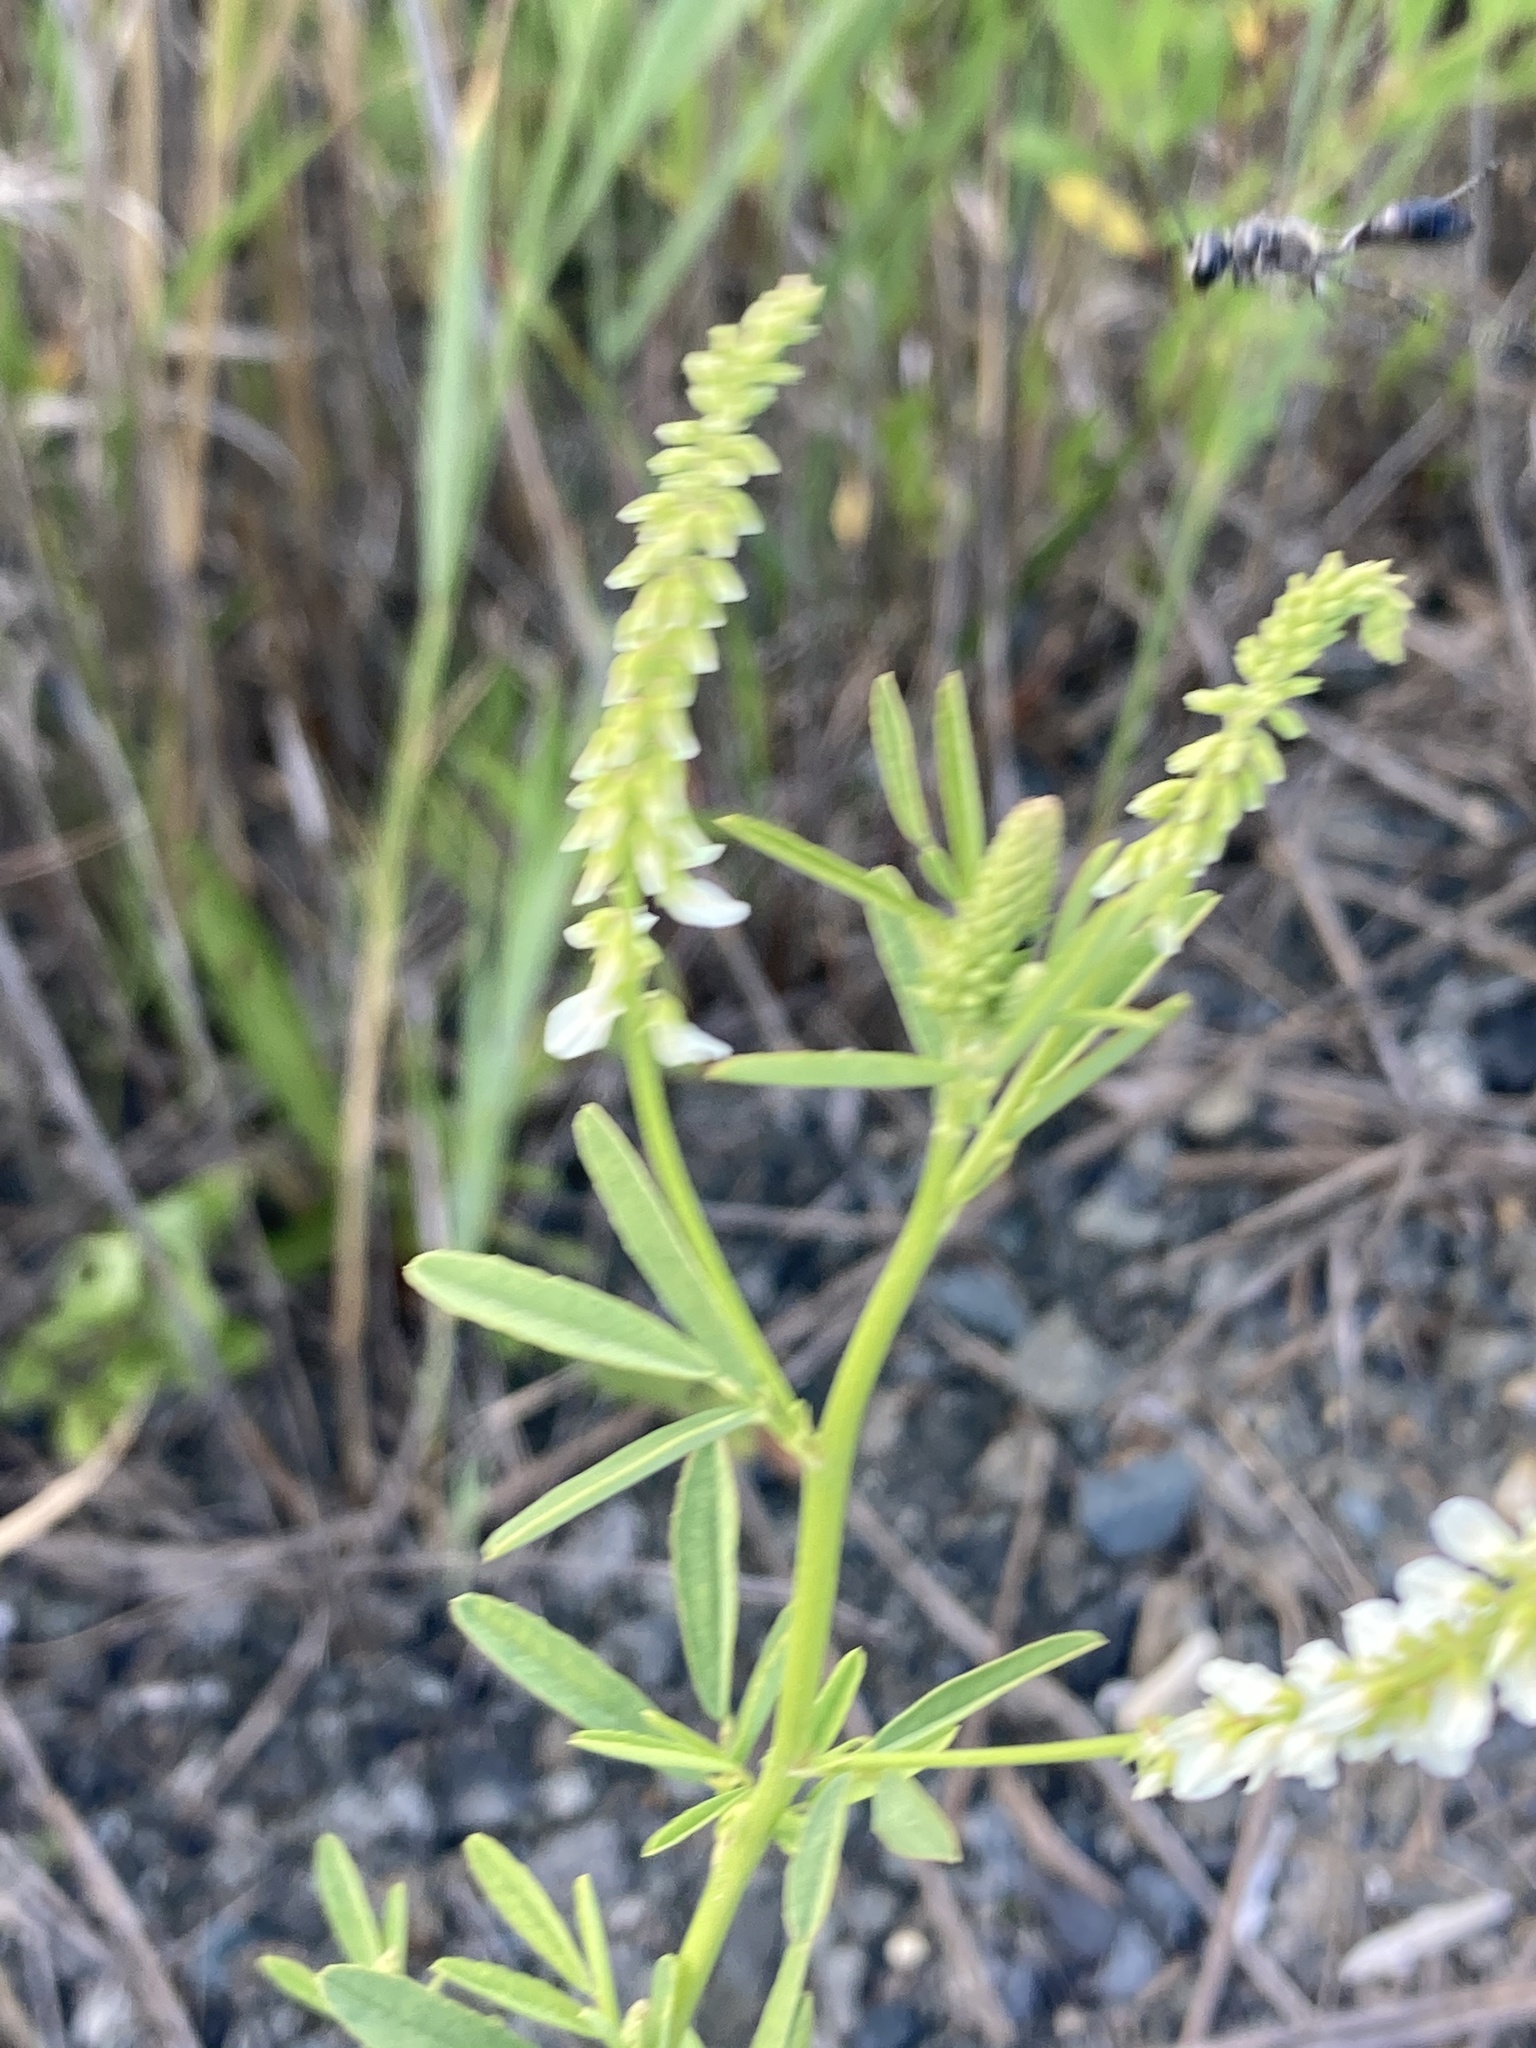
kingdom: Plantae
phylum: Tracheophyta
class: Magnoliopsida
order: Fabales
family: Fabaceae
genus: Melilotus
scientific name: Melilotus albus
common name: White melilot
